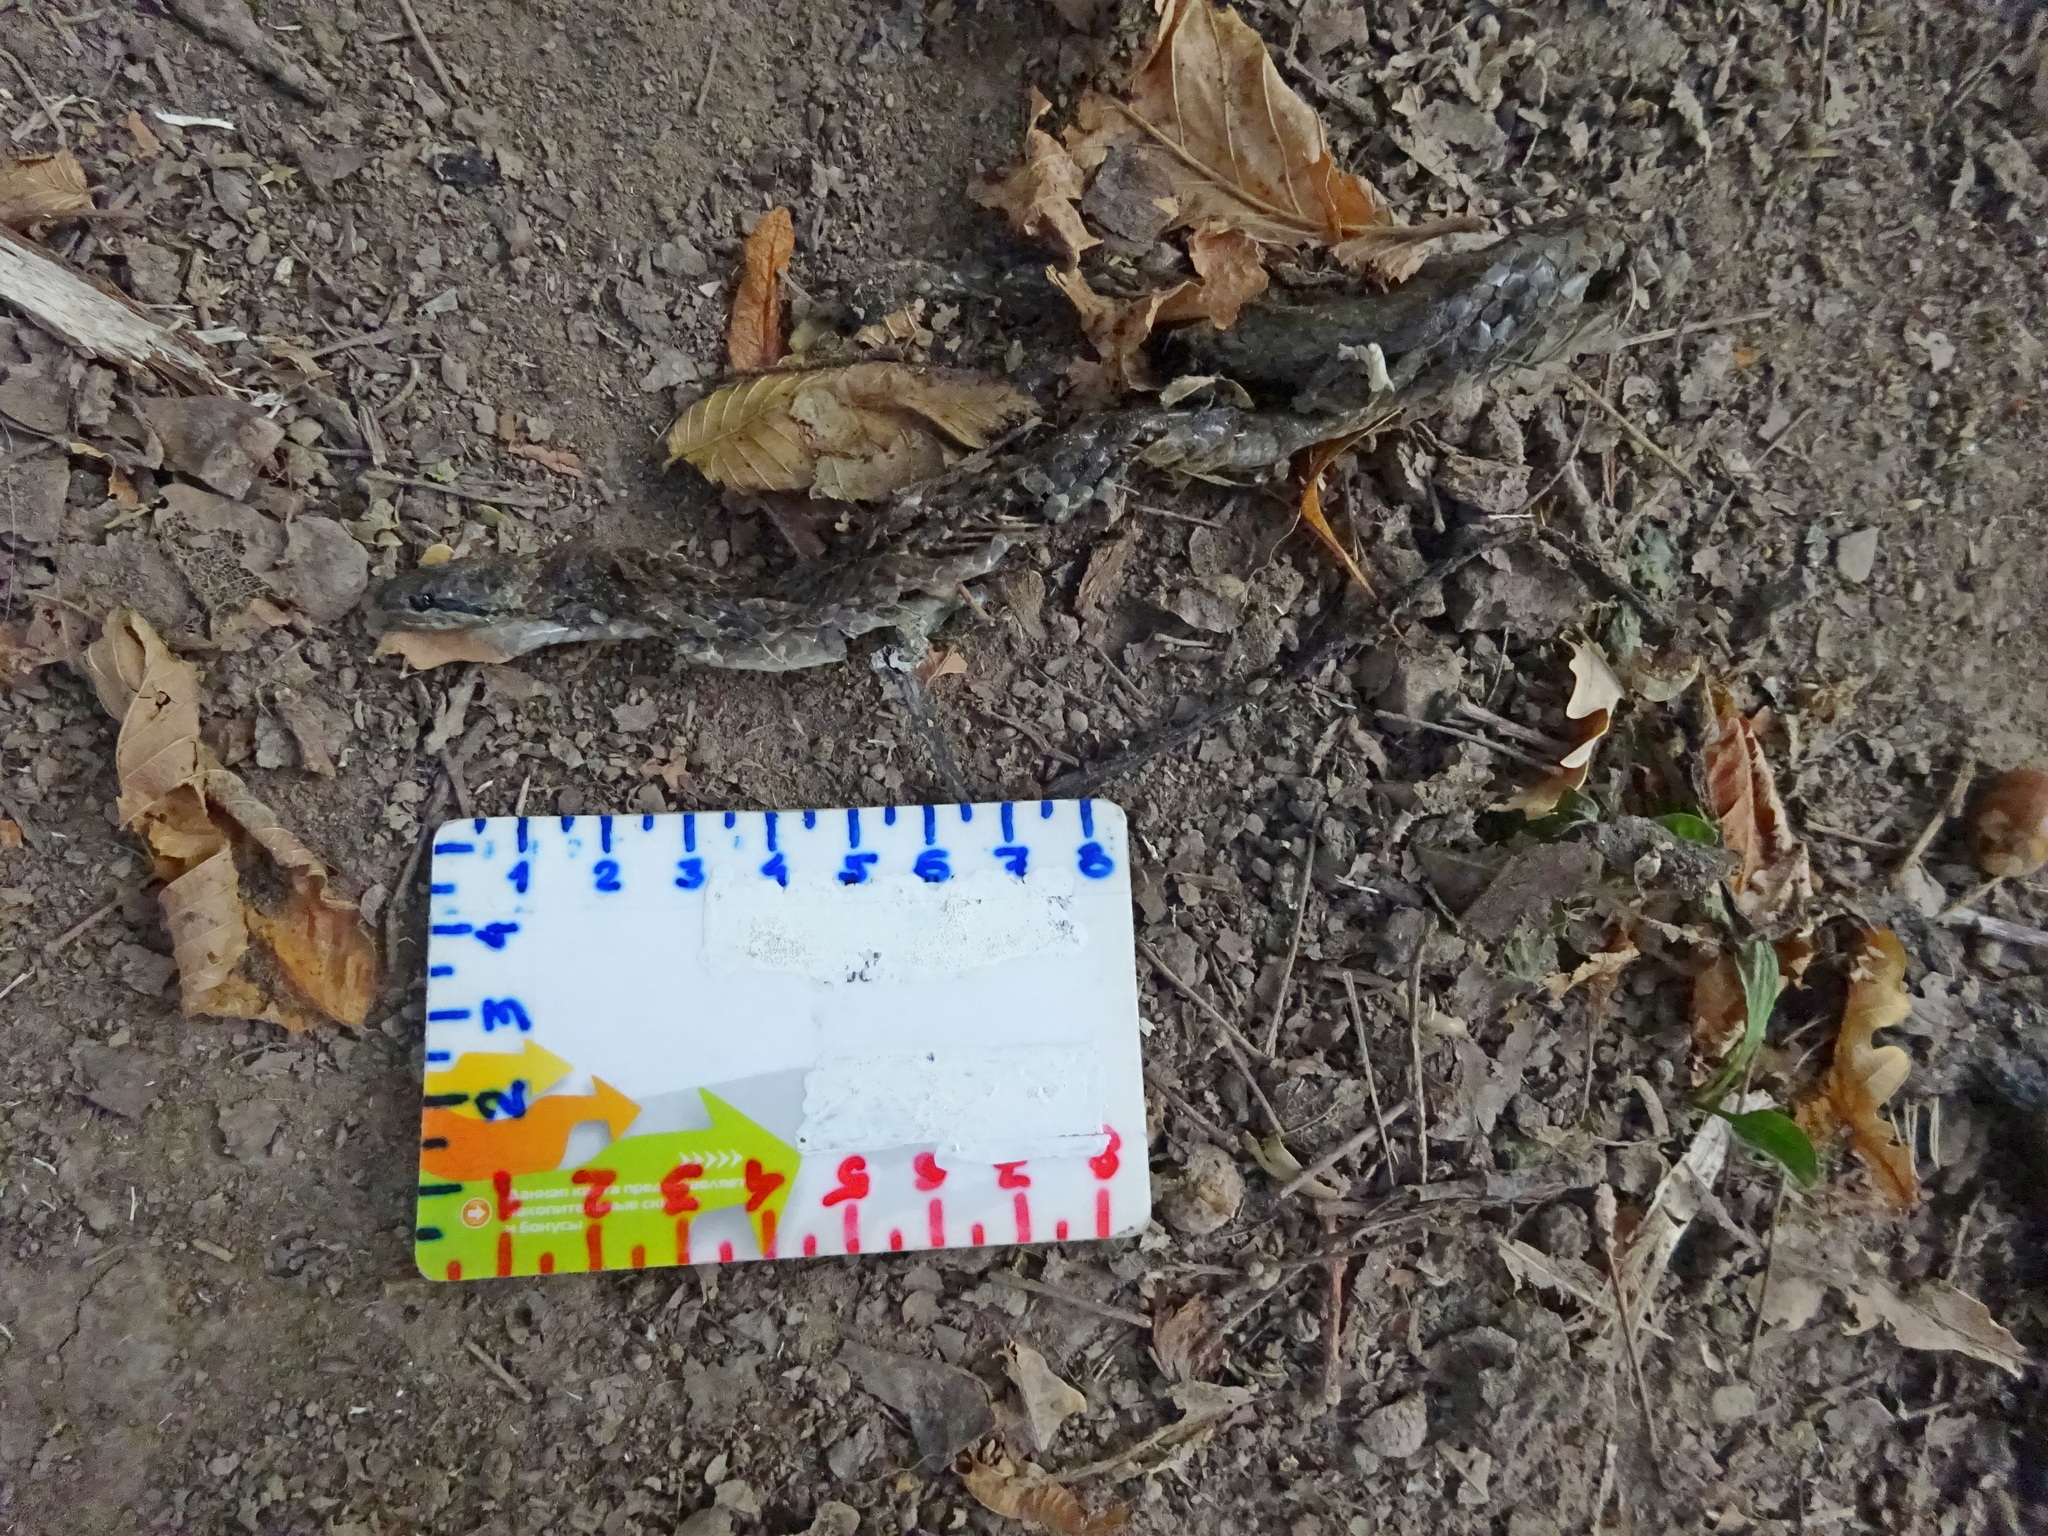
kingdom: Animalia
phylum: Chordata
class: Squamata
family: Colubridae
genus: Coronella
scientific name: Coronella austriaca
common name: Smooth snake
